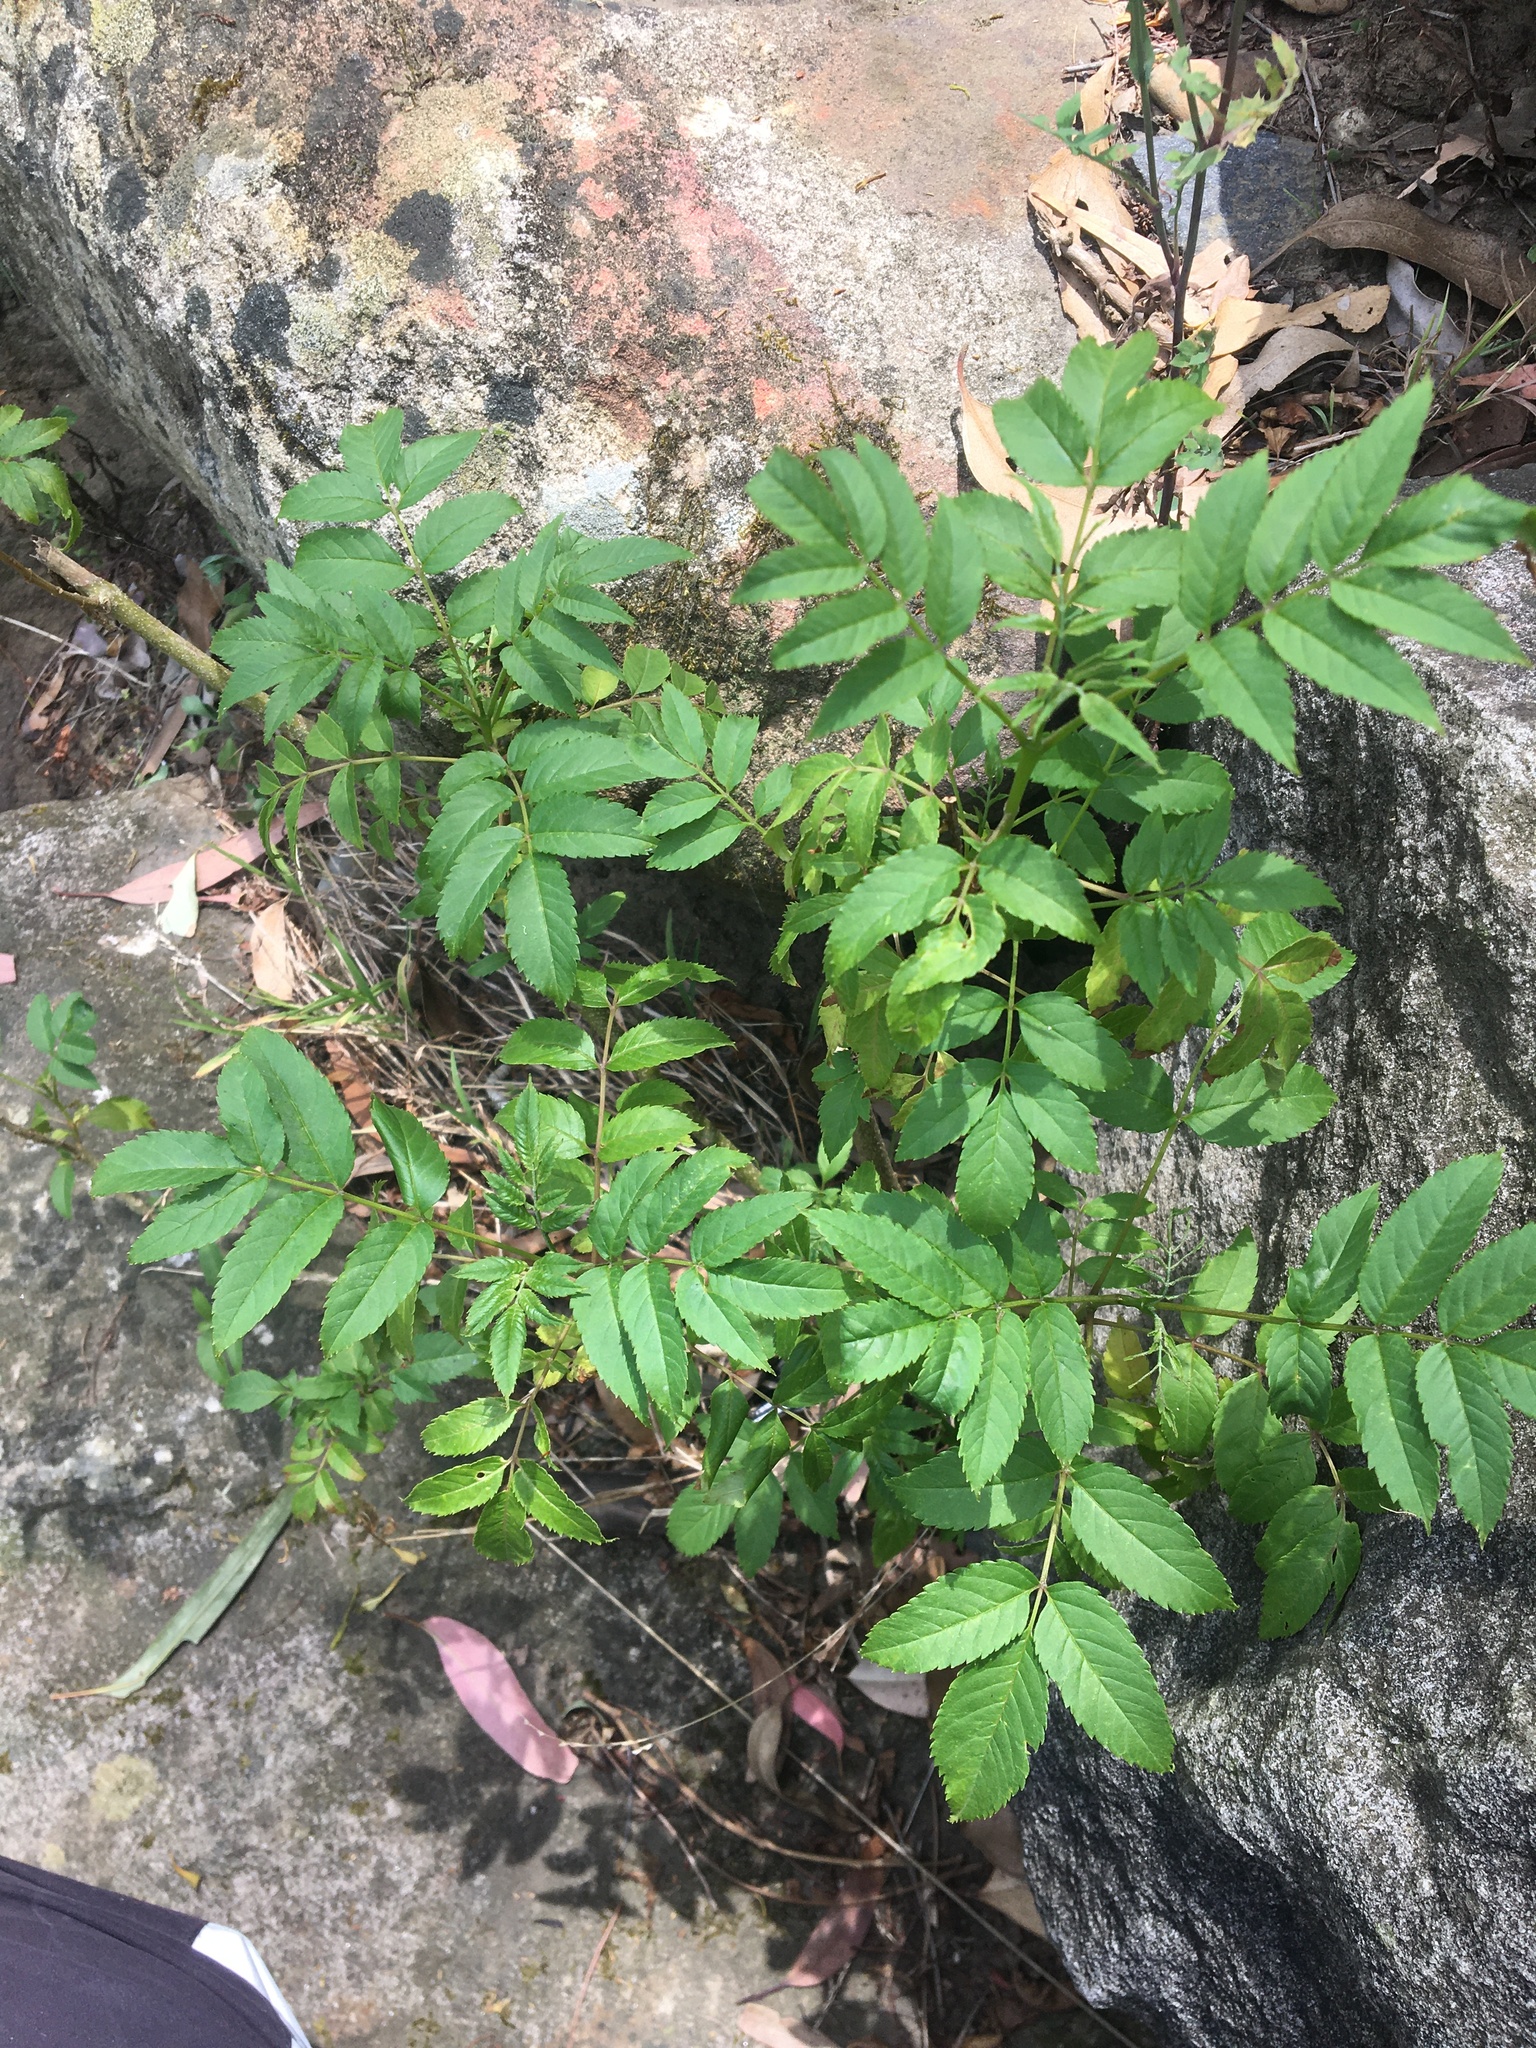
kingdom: Plantae
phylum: Tracheophyta
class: Magnoliopsida
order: Lamiales
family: Bignoniaceae
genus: Tecoma
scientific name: Tecoma stans
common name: Yellow trumpetbush
